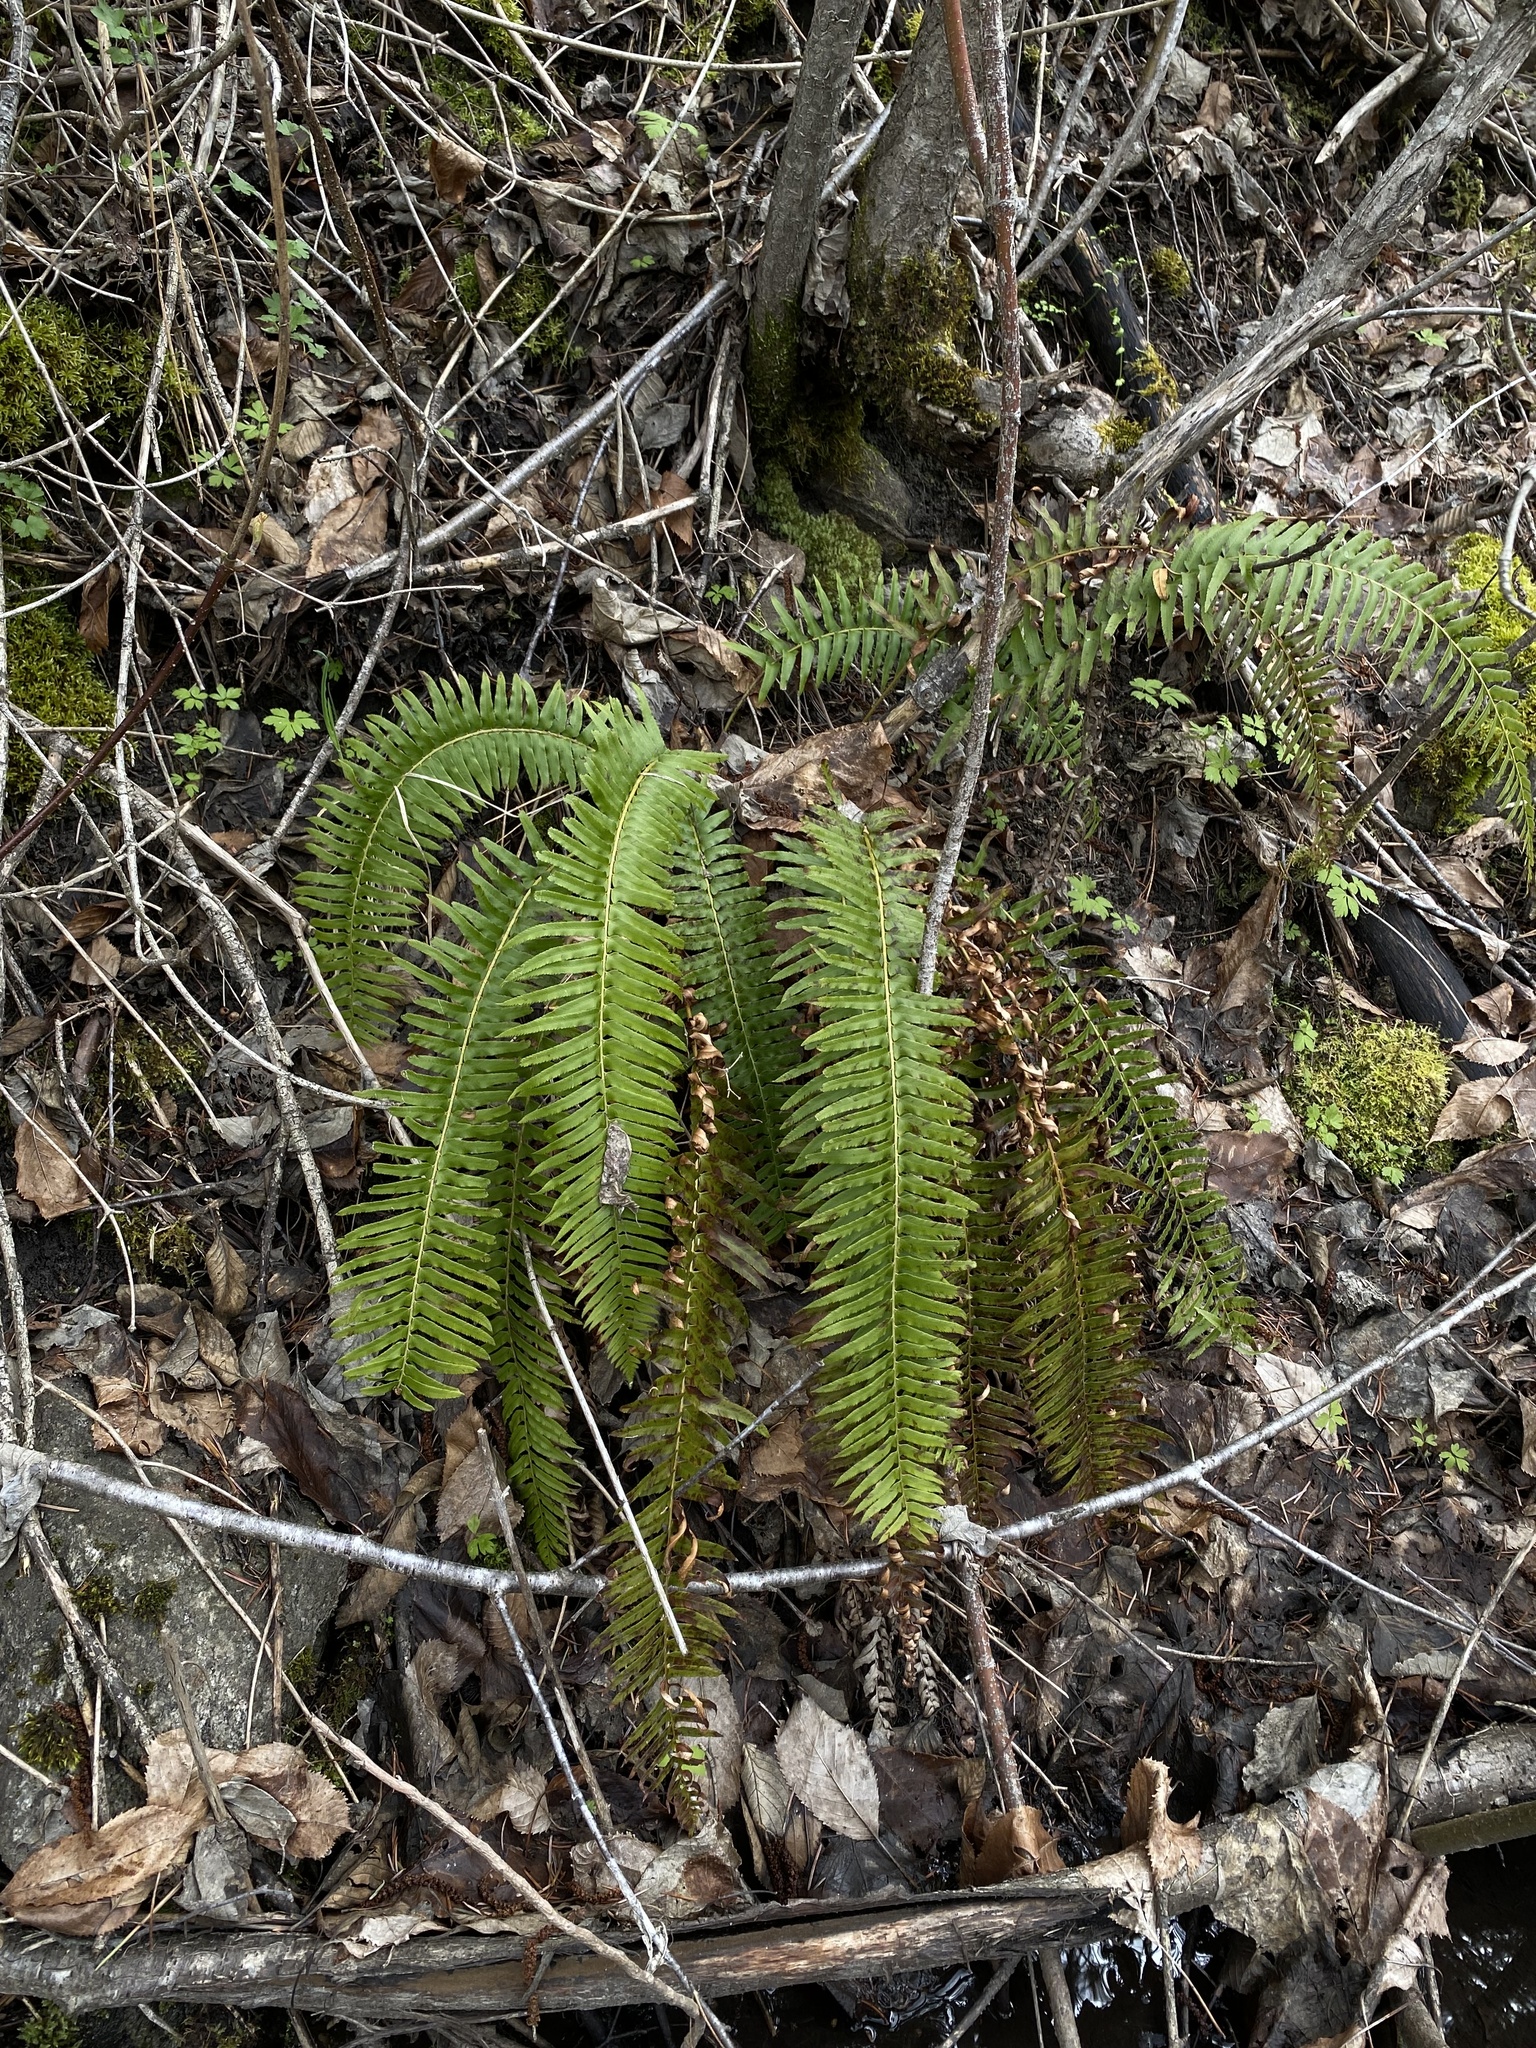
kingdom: Plantae
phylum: Tracheophyta
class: Polypodiopsida
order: Polypodiales
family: Dryopteridaceae
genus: Polystichum
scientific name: Polystichum munitum
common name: Western sword-fern
